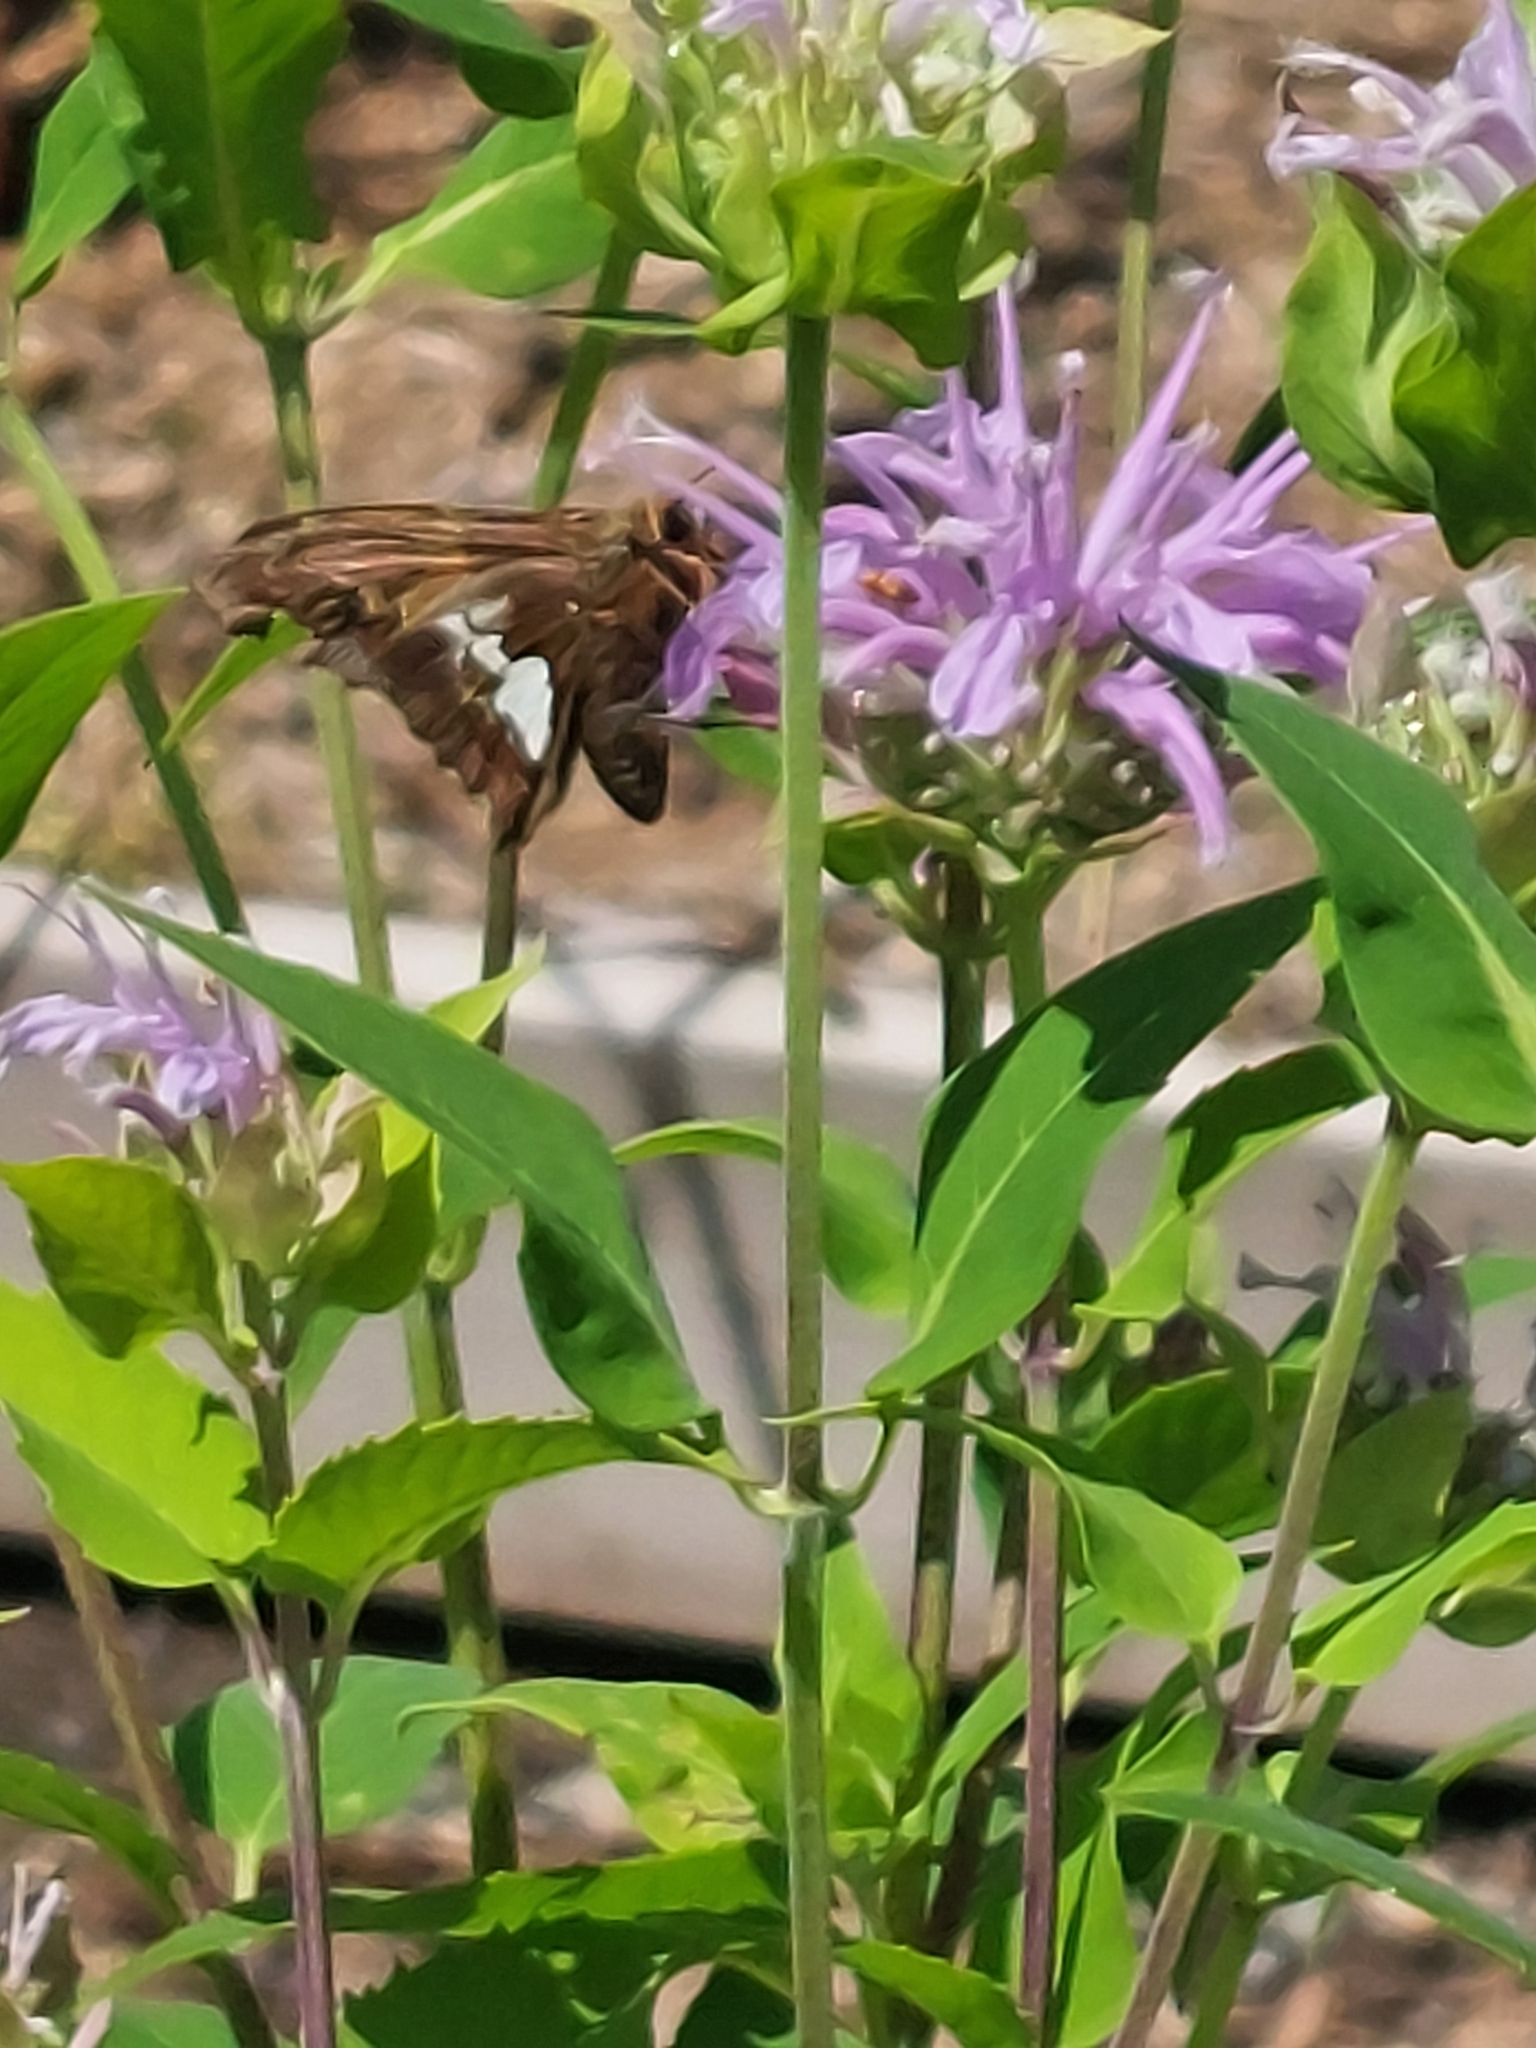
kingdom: Animalia
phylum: Arthropoda
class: Insecta
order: Lepidoptera
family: Hesperiidae
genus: Epargyreus
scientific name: Epargyreus clarus
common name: Silver-spotted skipper
